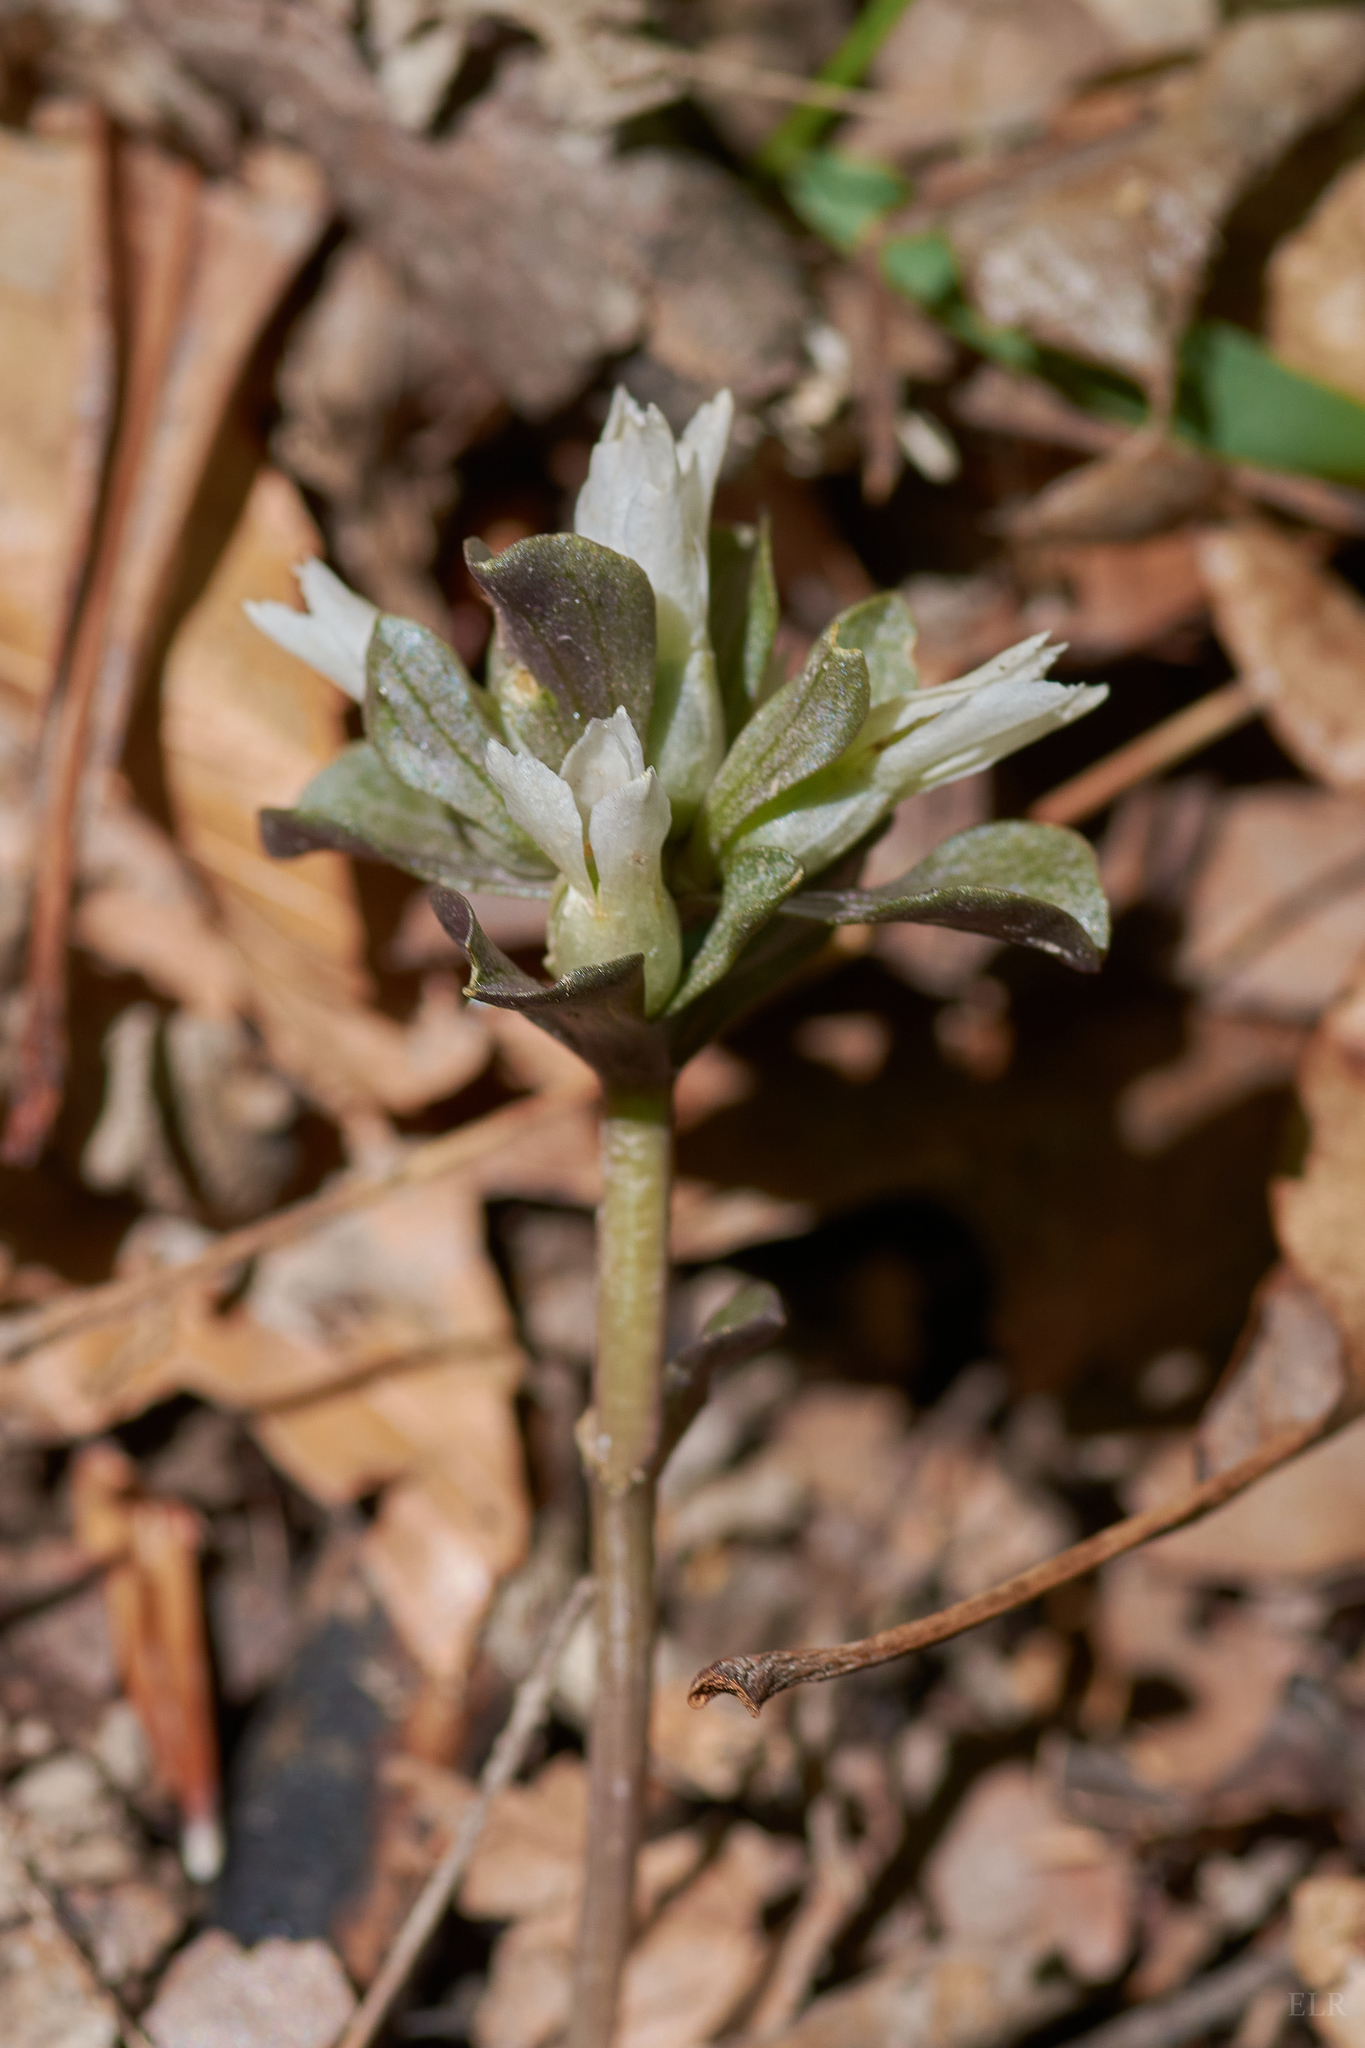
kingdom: Plantae
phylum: Tracheophyta
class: Magnoliopsida
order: Gentianales
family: Gentianaceae
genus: Obolaria
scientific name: Obolaria virginica
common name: Pennywort
